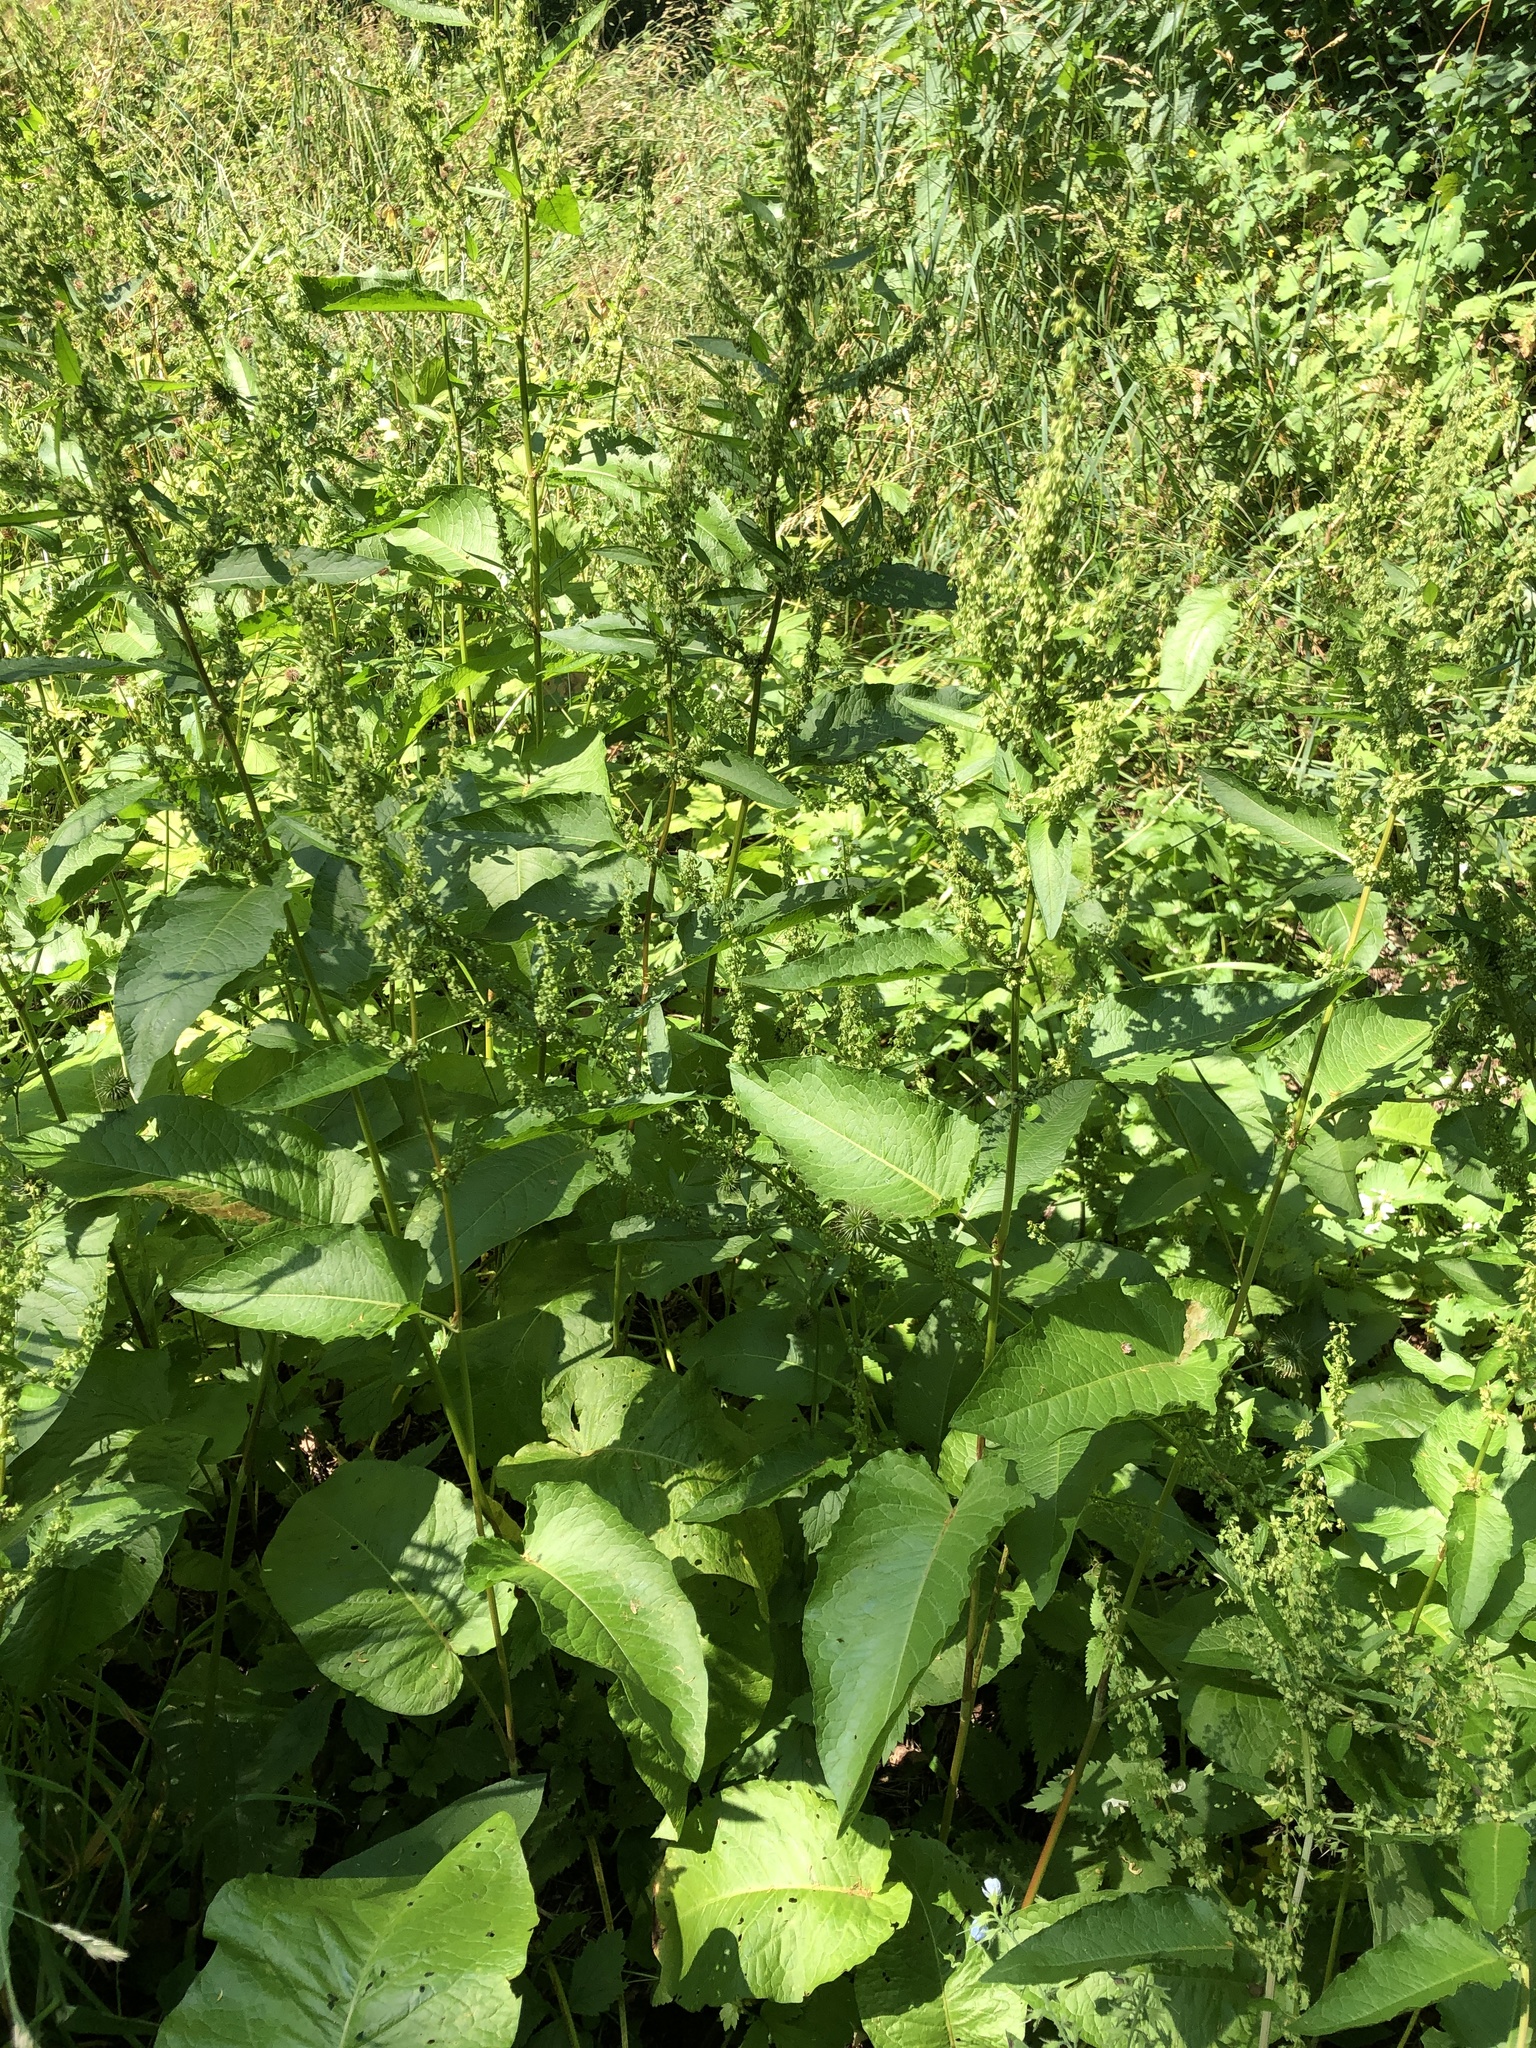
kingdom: Plantae
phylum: Tracheophyta
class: Magnoliopsida
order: Caryophyllales
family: Polygonaceae
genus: Rumex
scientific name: Rumex obtusifolius
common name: Bitter dock
